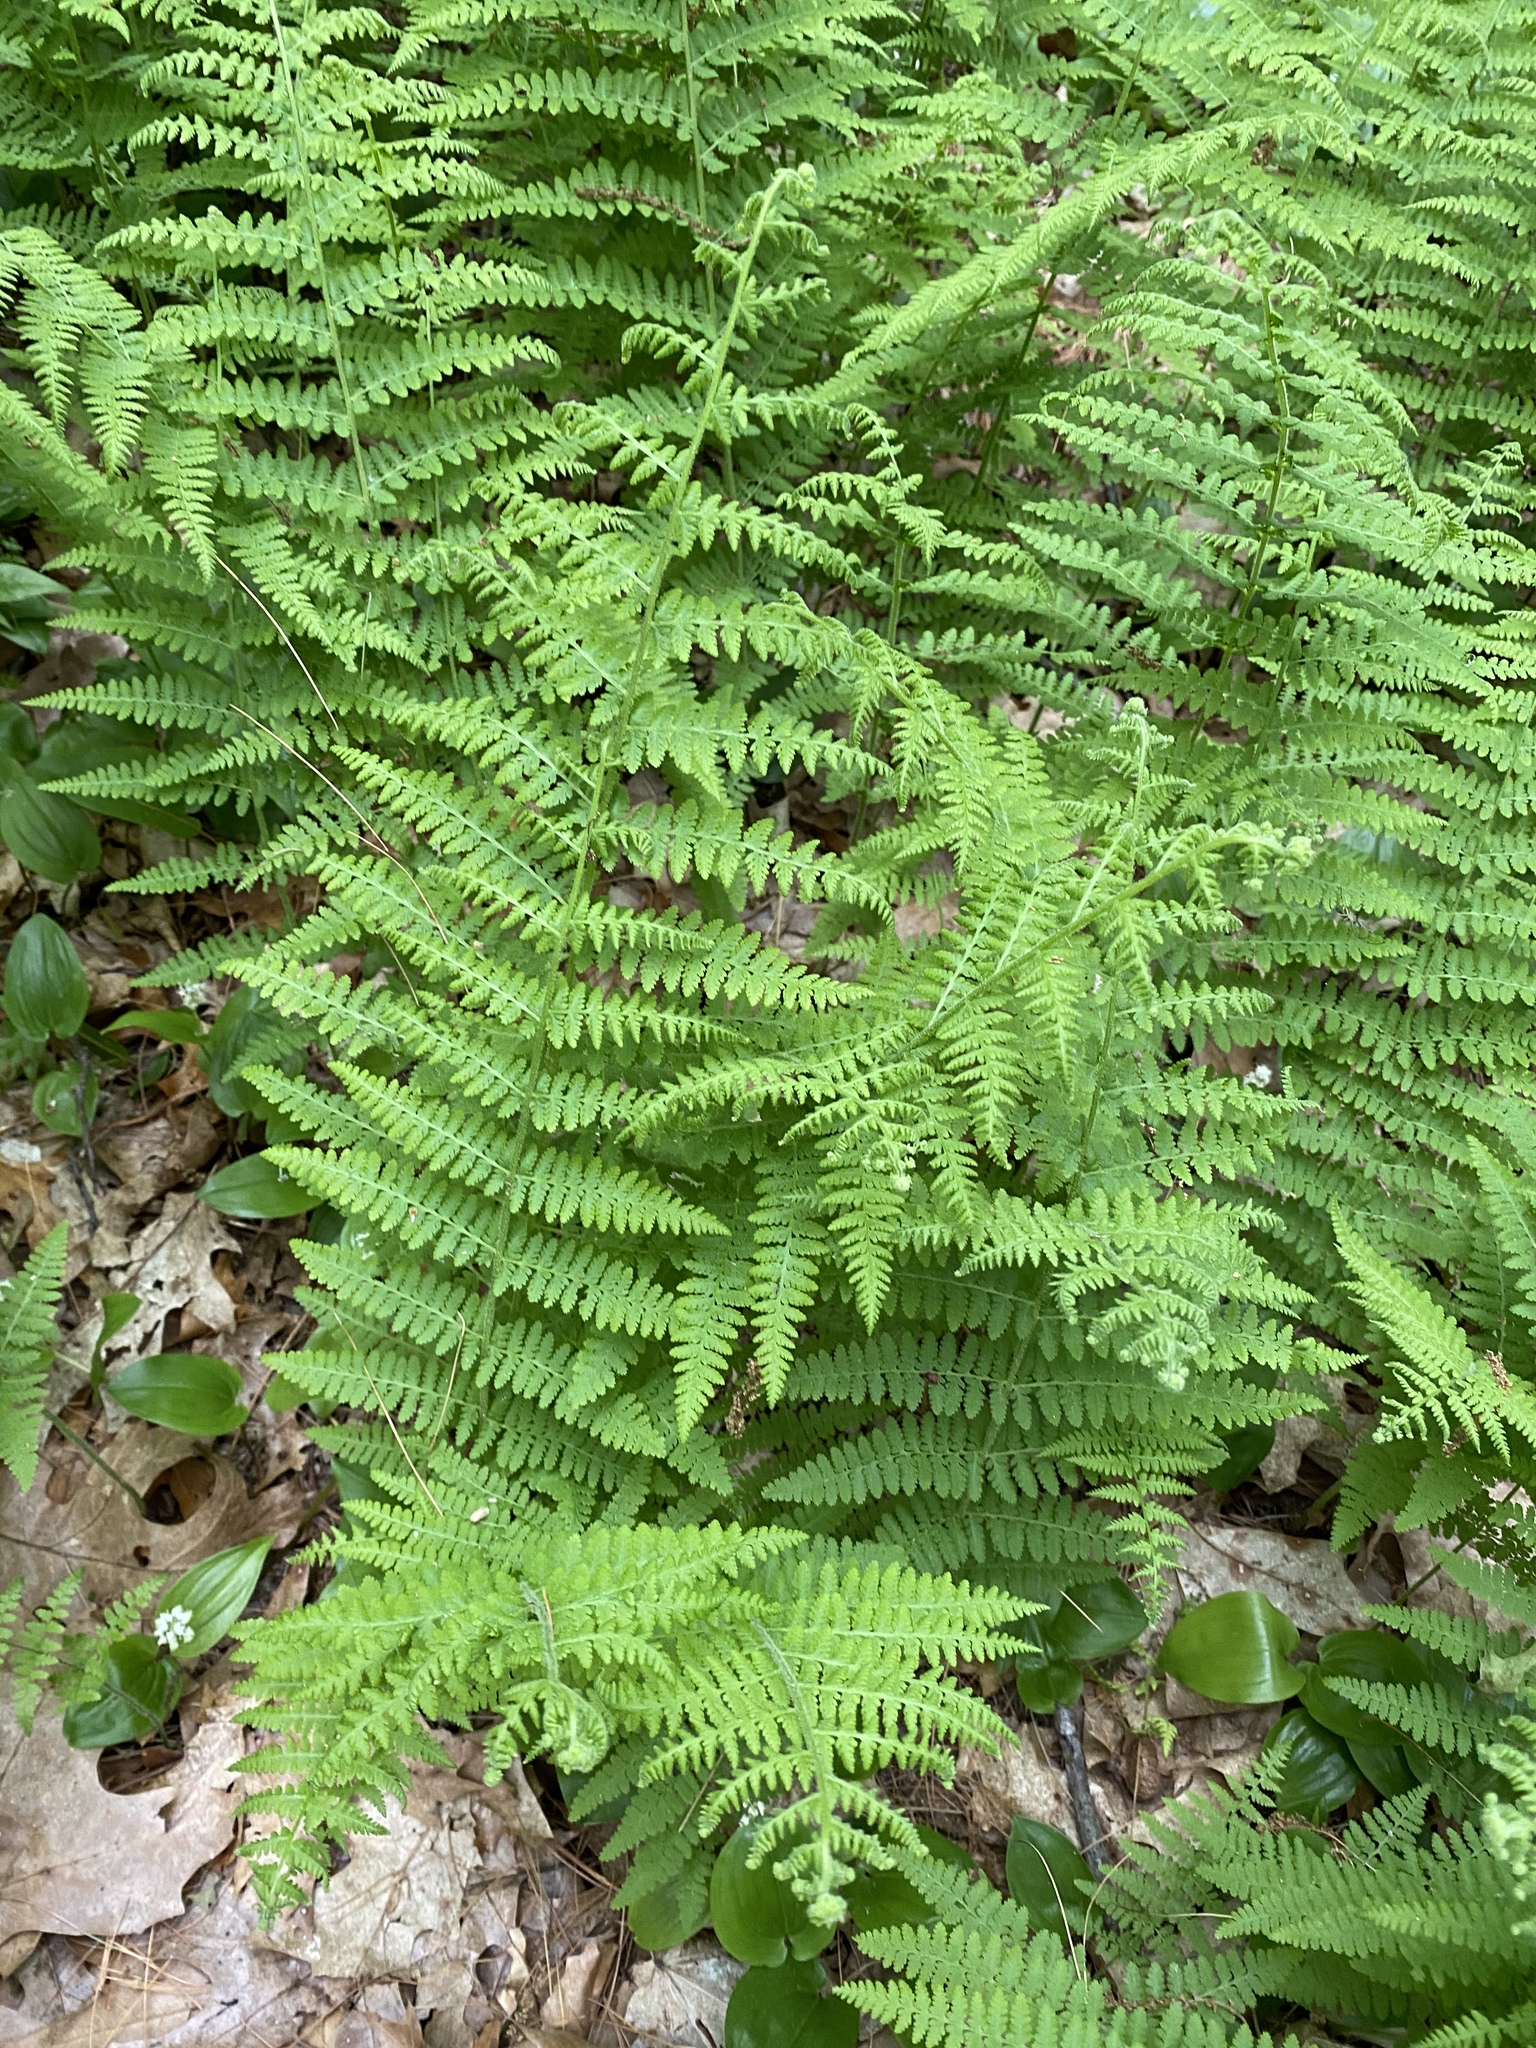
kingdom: Plantae
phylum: Tracheophyta
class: Polypodiopsida
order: Polypodiales
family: Dennstaedtiaceae
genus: Sitobolium
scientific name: Sitobolium punctilobum
